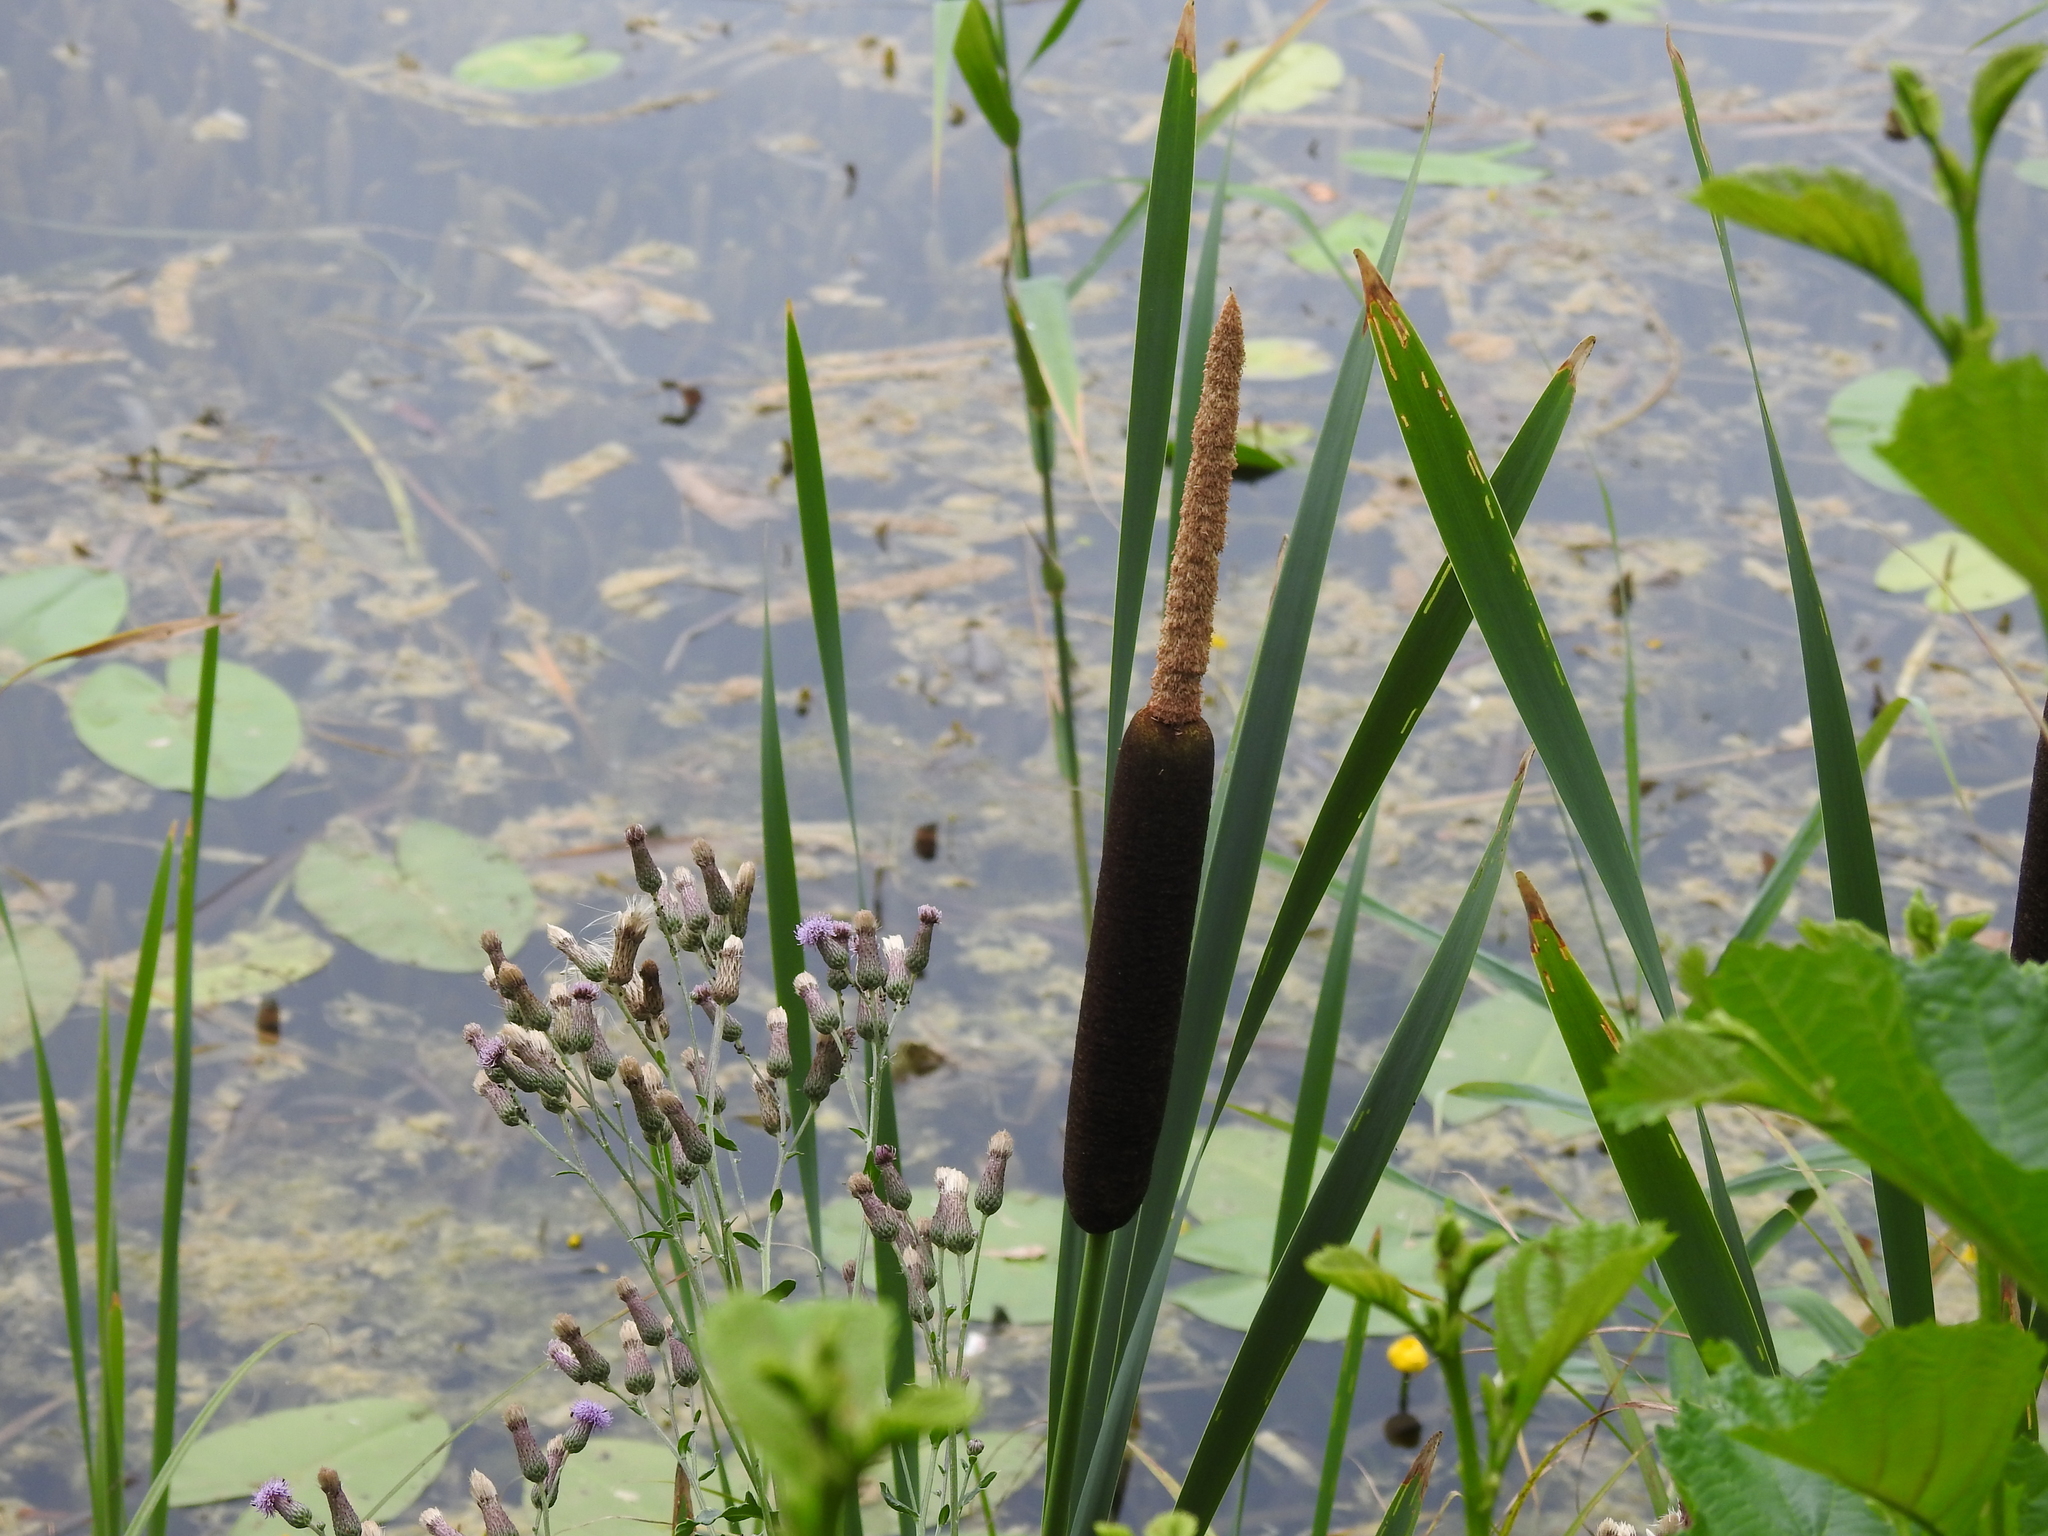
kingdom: Plantae
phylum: Tracheophyta
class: Liliopsida
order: Poales
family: Typhaceae
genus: Typha
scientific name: Typha latifolia
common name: Broadleaf cattail
